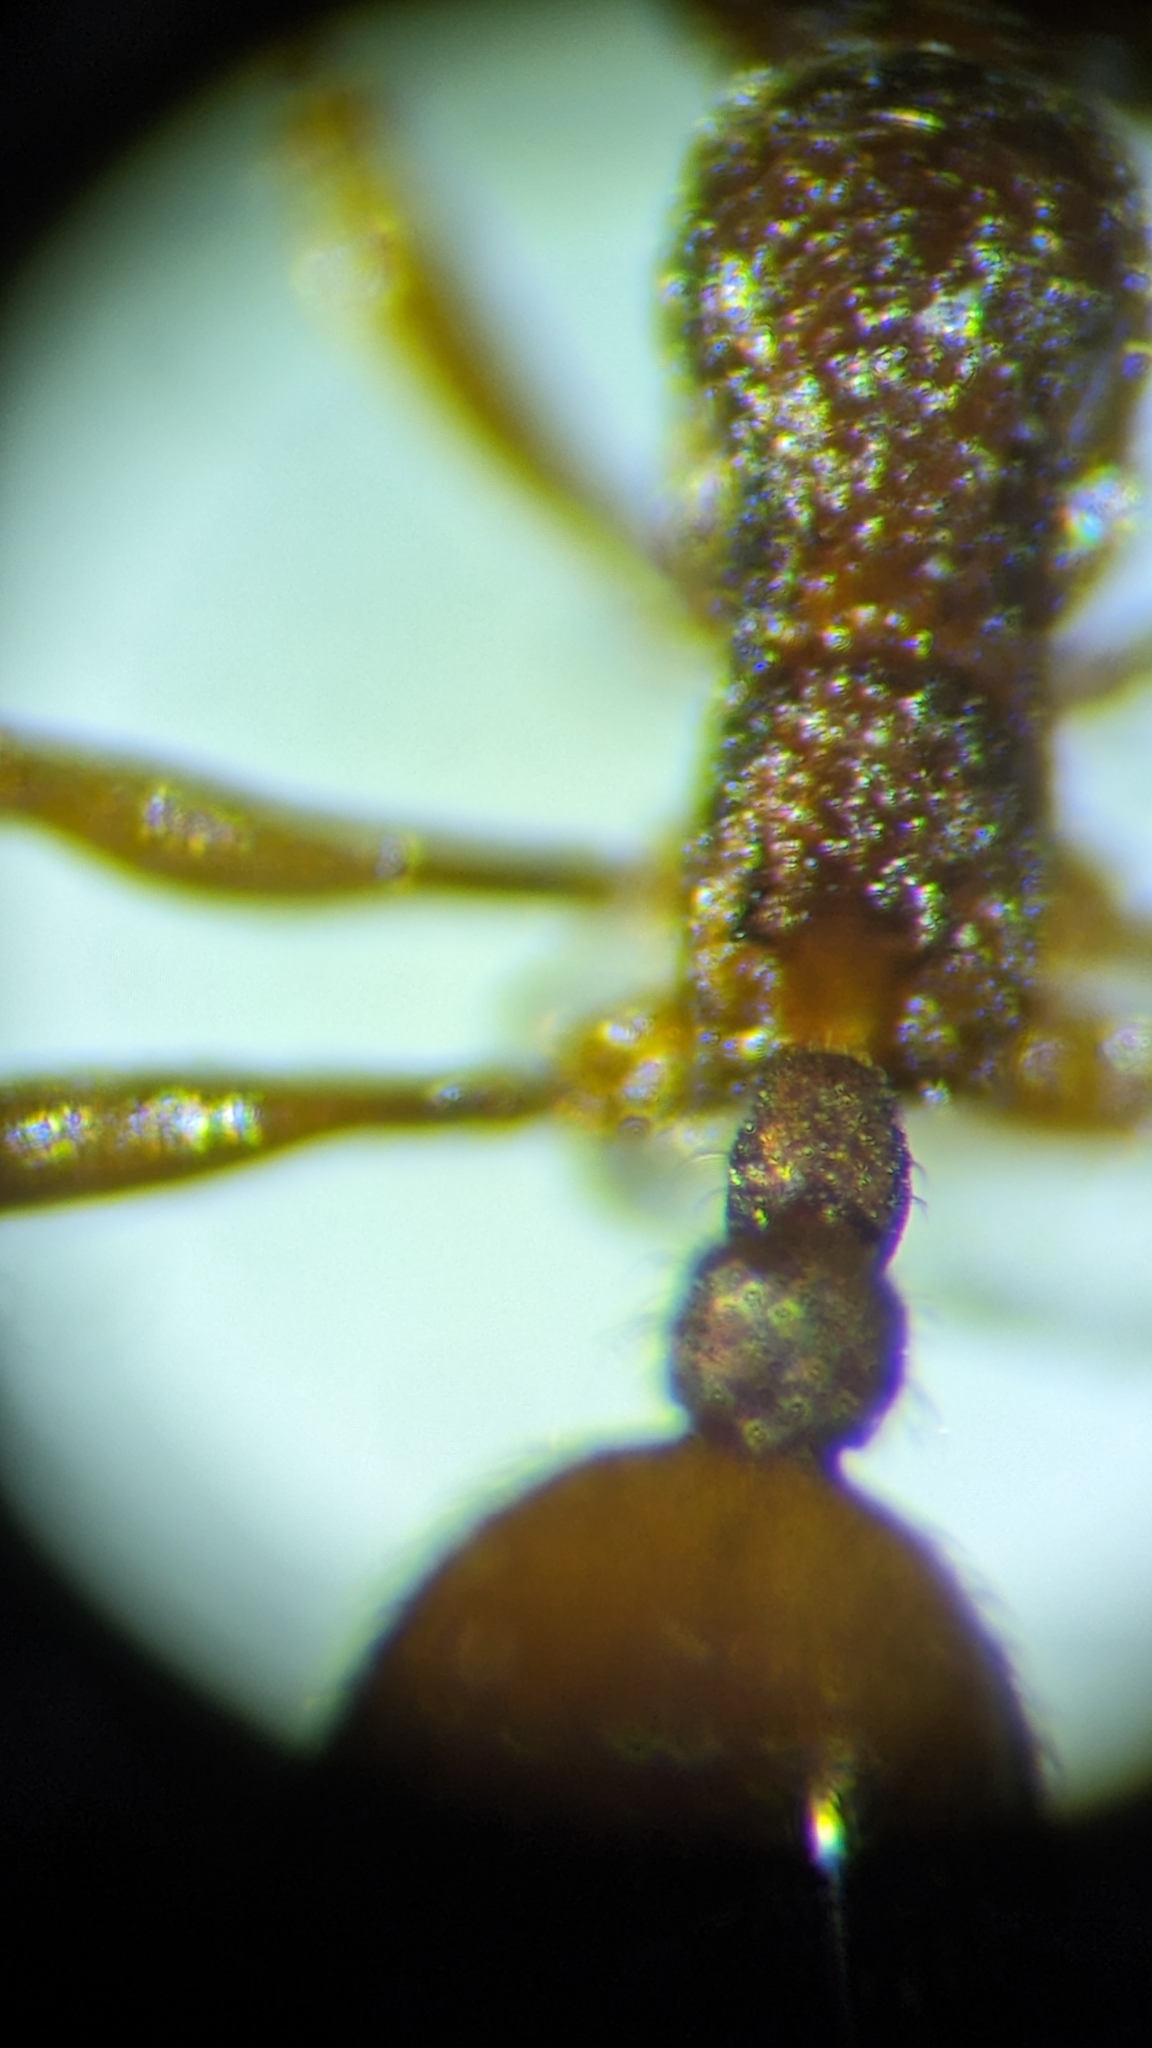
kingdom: Animalia
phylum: Arthropoda
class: Insecta
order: Hymenoptera
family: Formicidae
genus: Stenamma
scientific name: Stenamma brevicorne
